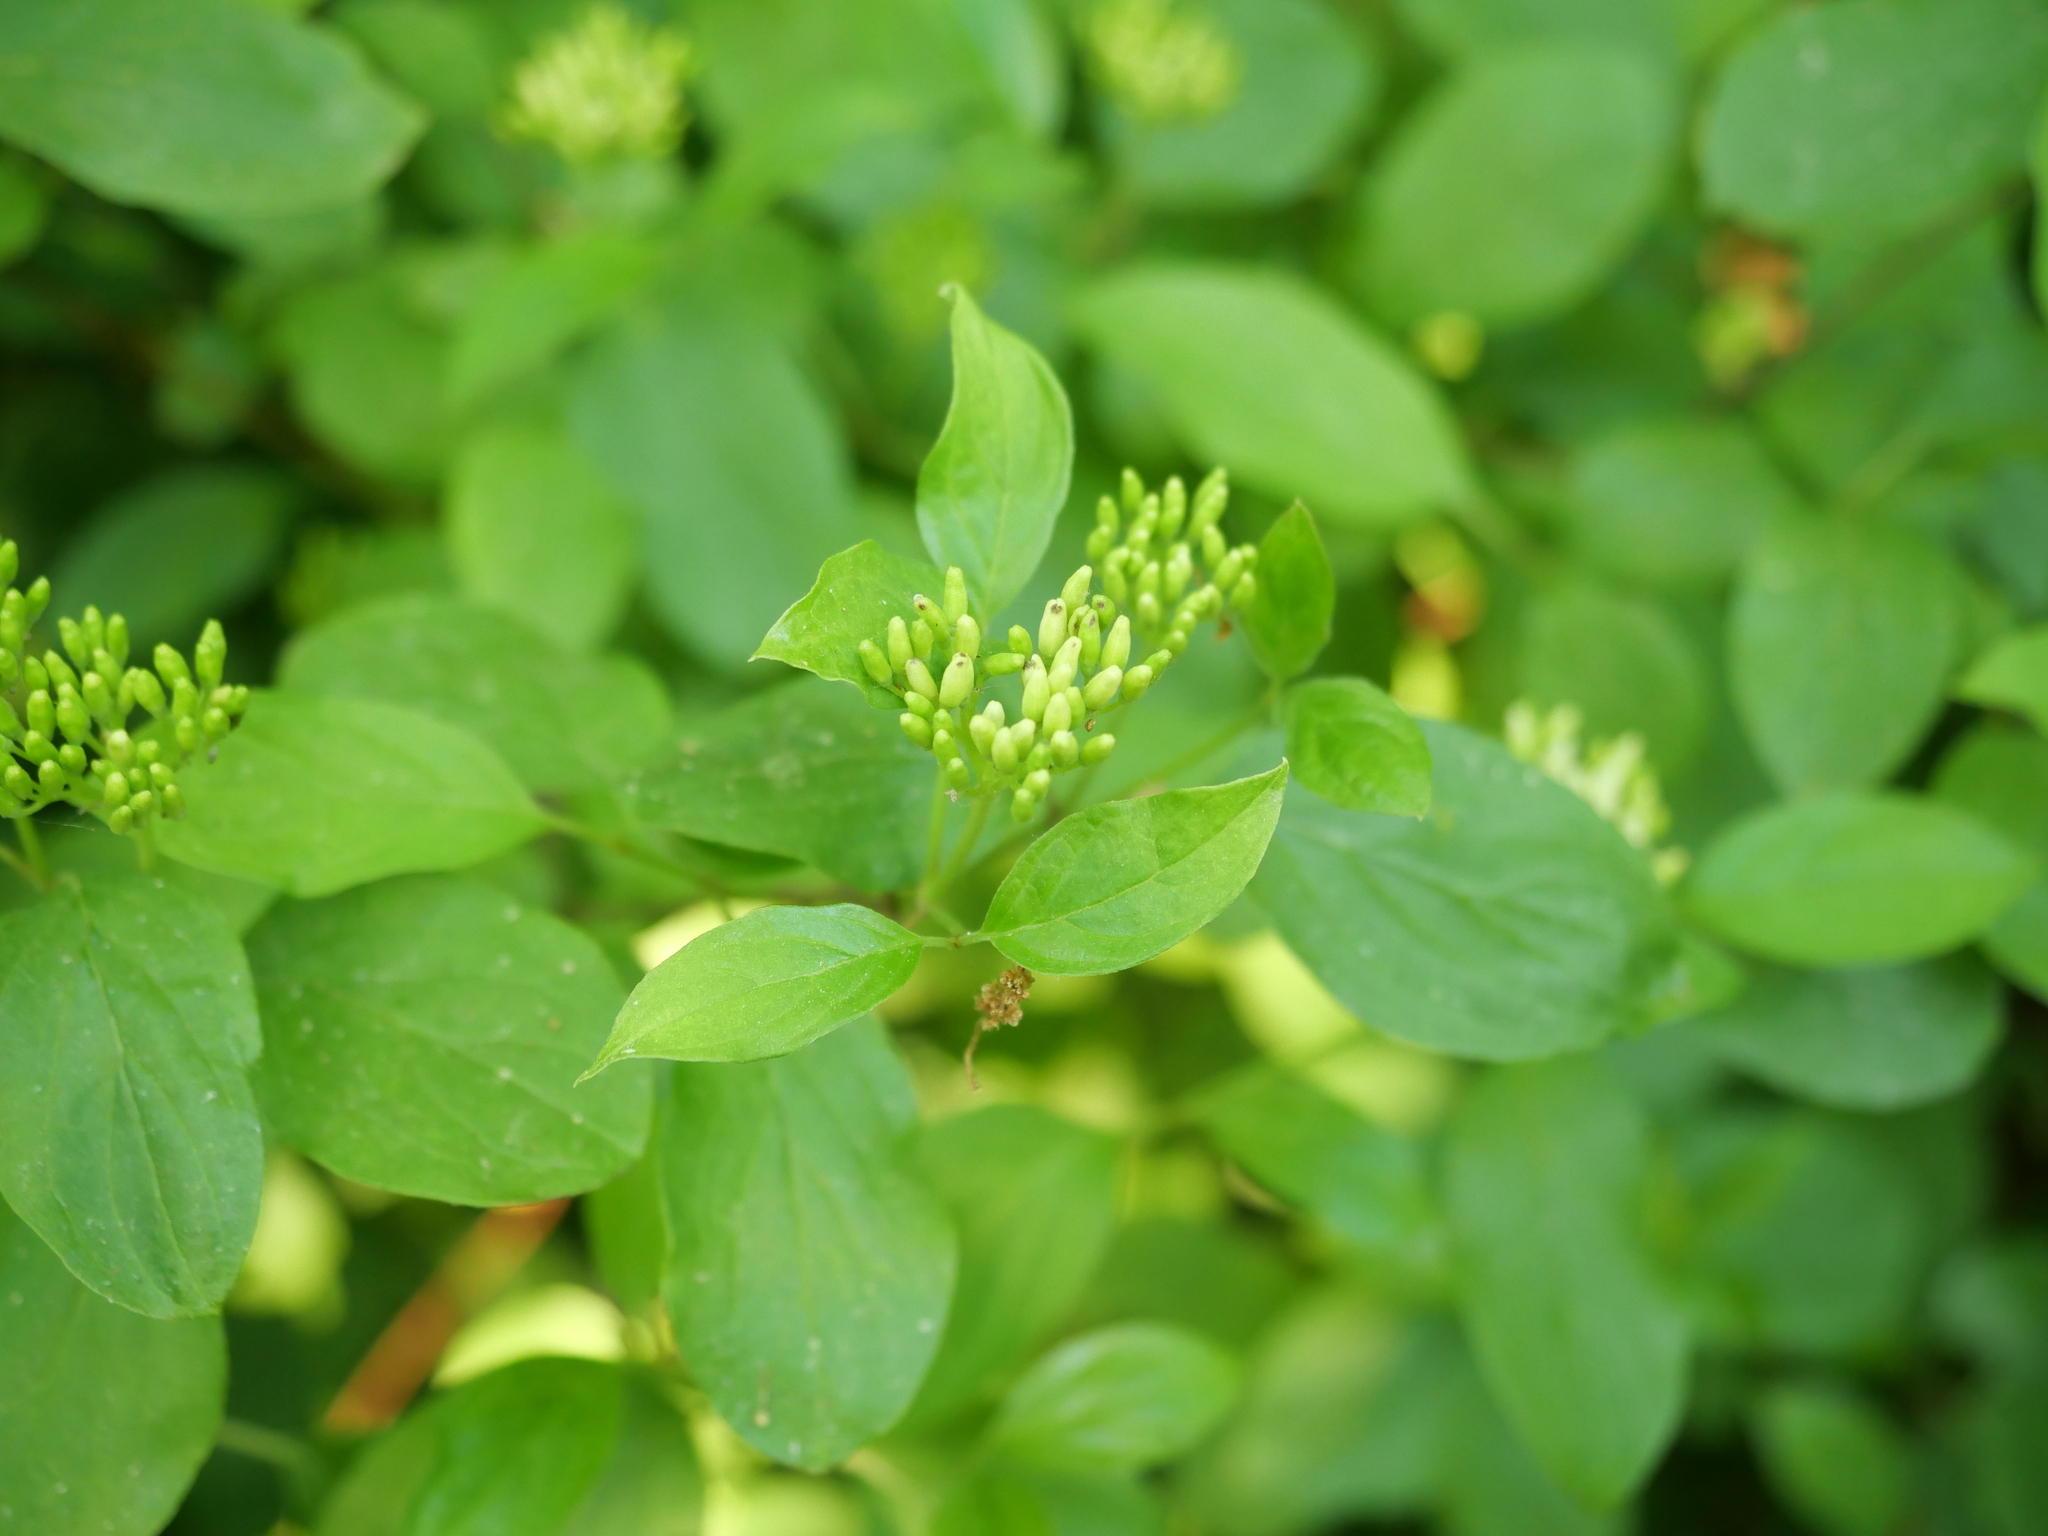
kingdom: Plantae
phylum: Tracheophyta
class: Magnoliopsida
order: Cornales
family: Cornaceae
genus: Cornus
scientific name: Cornus sanguinea
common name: Dogwood
